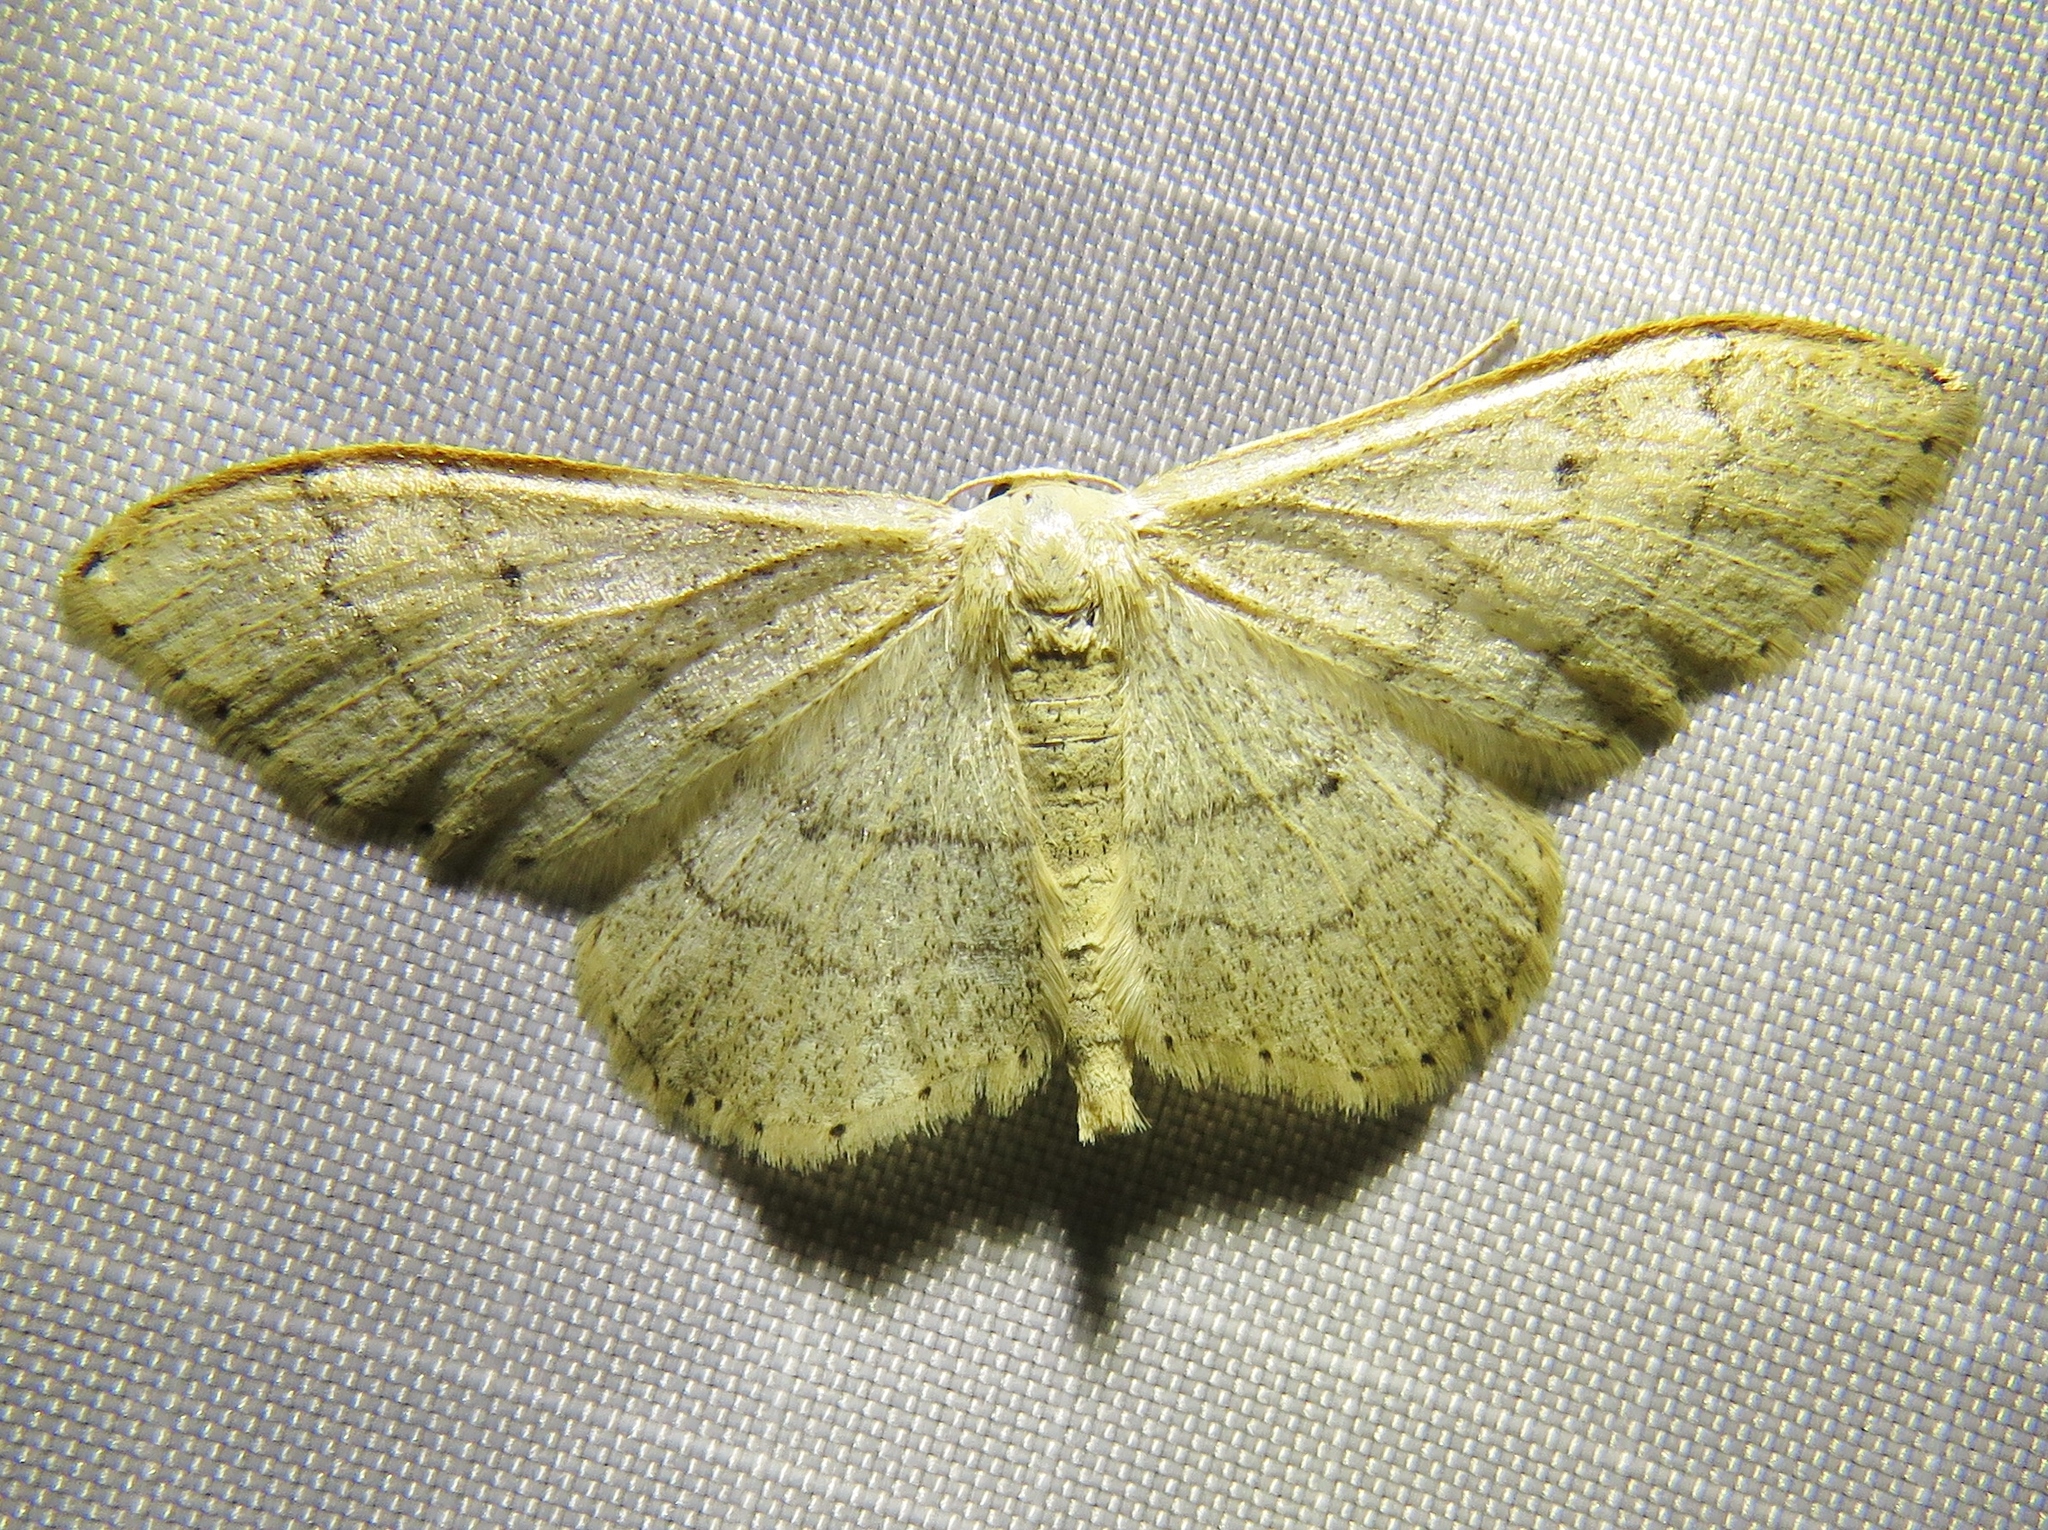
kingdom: Animalia
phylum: Arthropoda
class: Insecta
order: Lepidoptera
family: Geometridae
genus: Idaea
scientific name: Idaea aversata
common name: Riband wave
